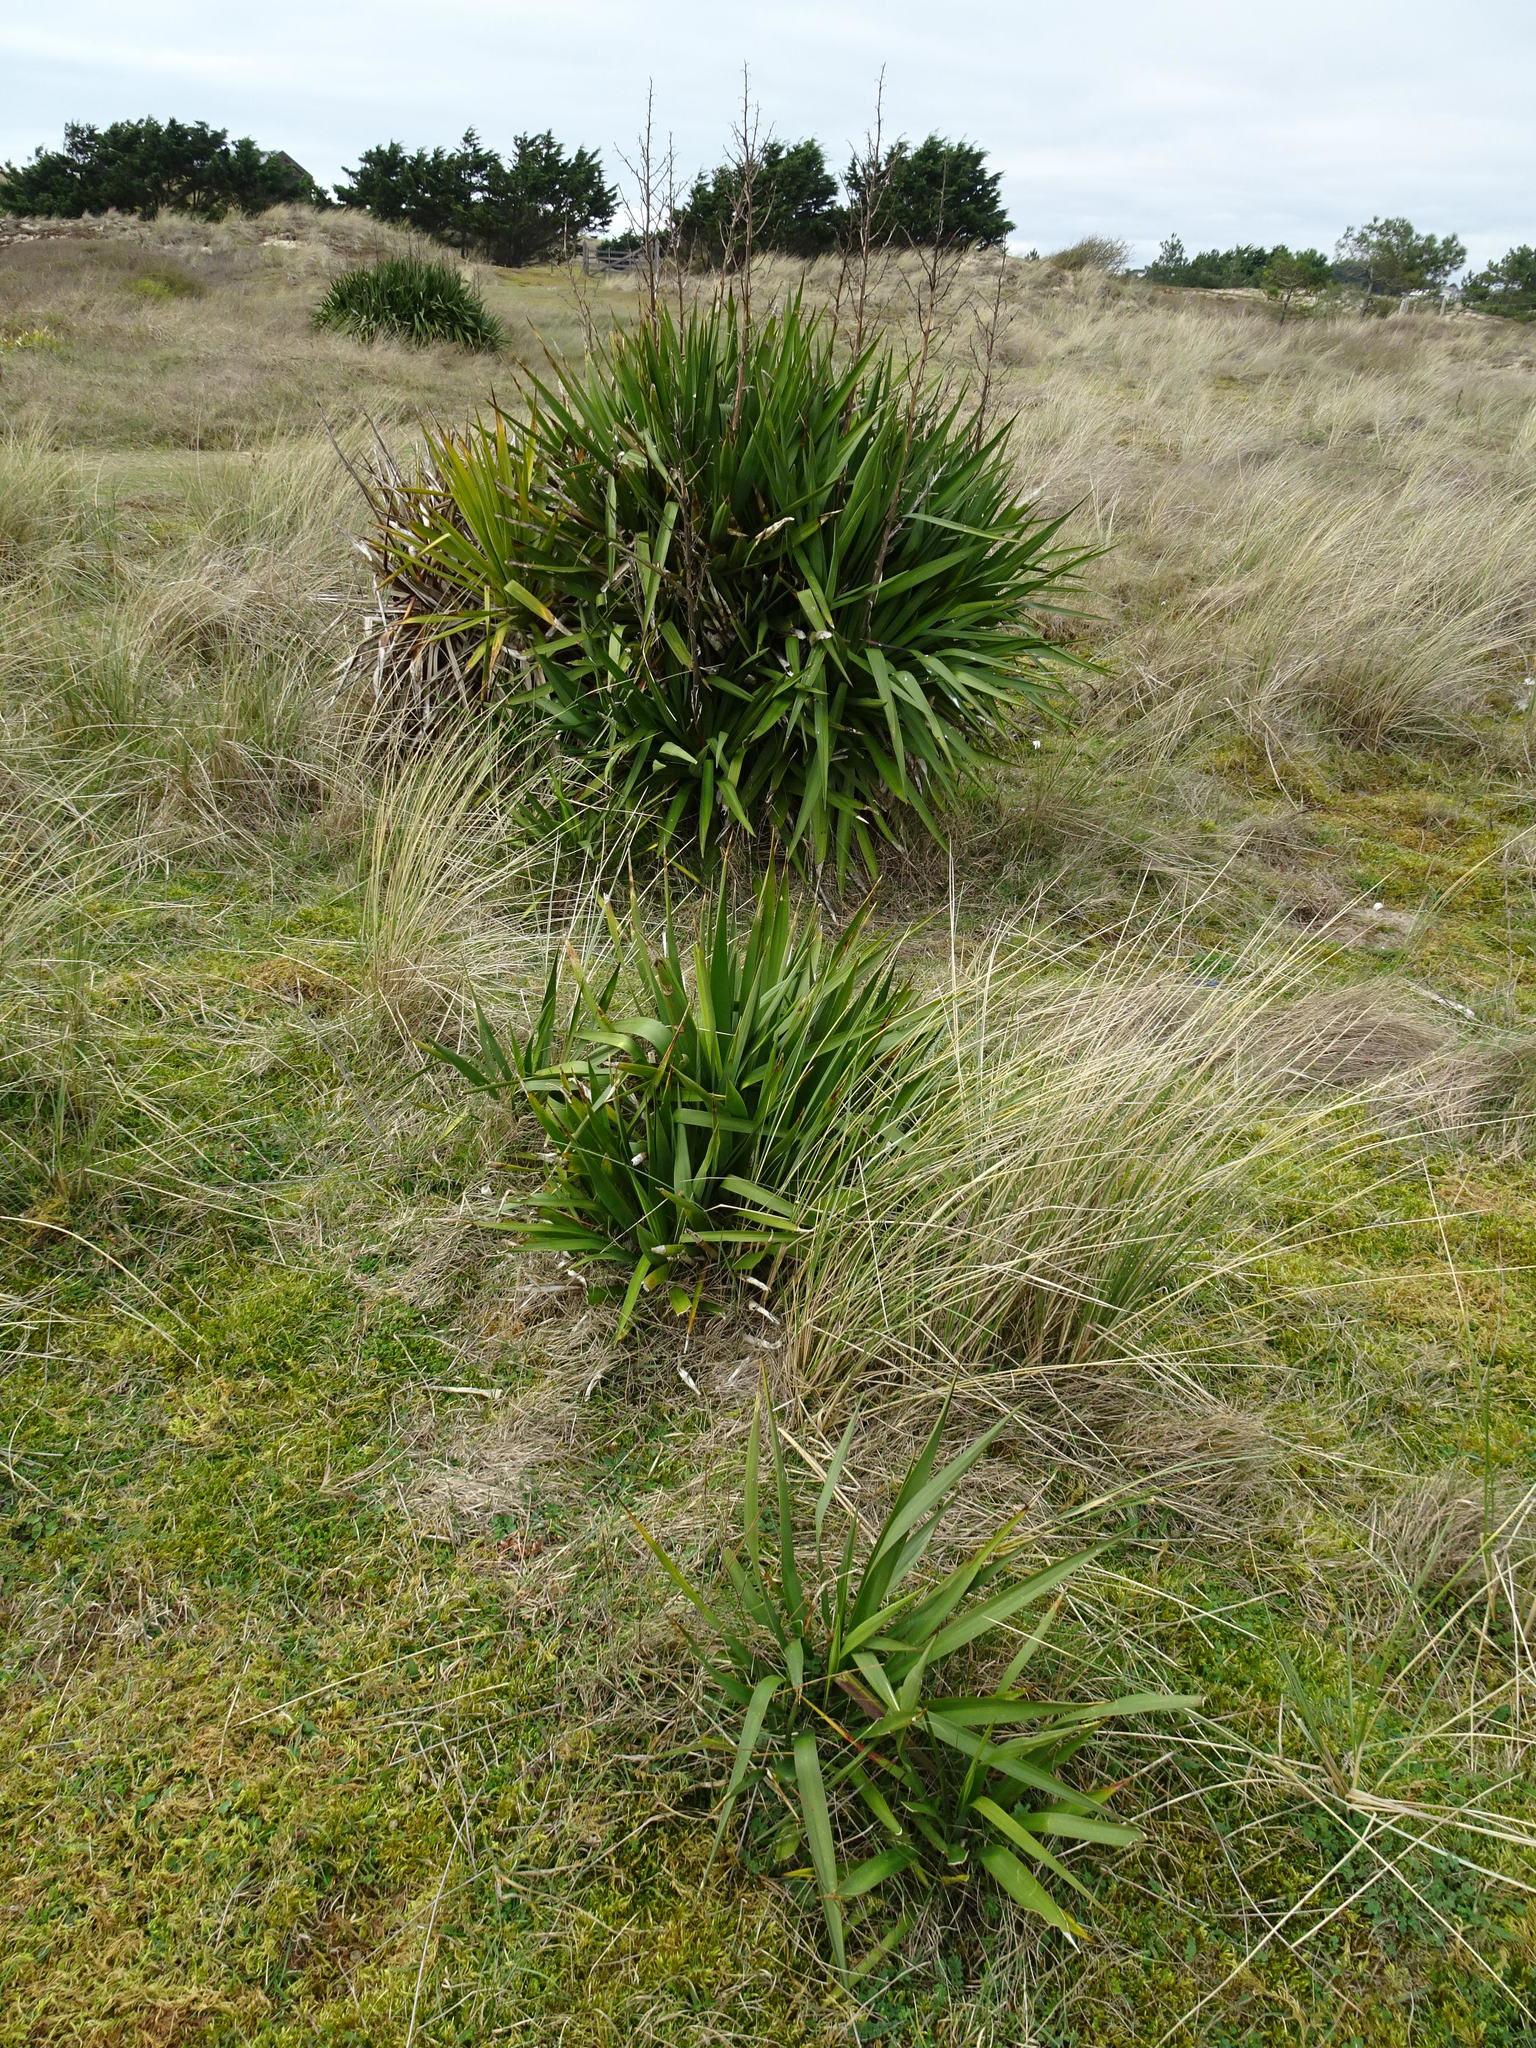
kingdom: Plantae
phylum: Tracheophyta
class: Liliopsida
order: Asparagales
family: Asparagaceae
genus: Yucca
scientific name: Yucca gloriosa
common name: Spanish-dagger
